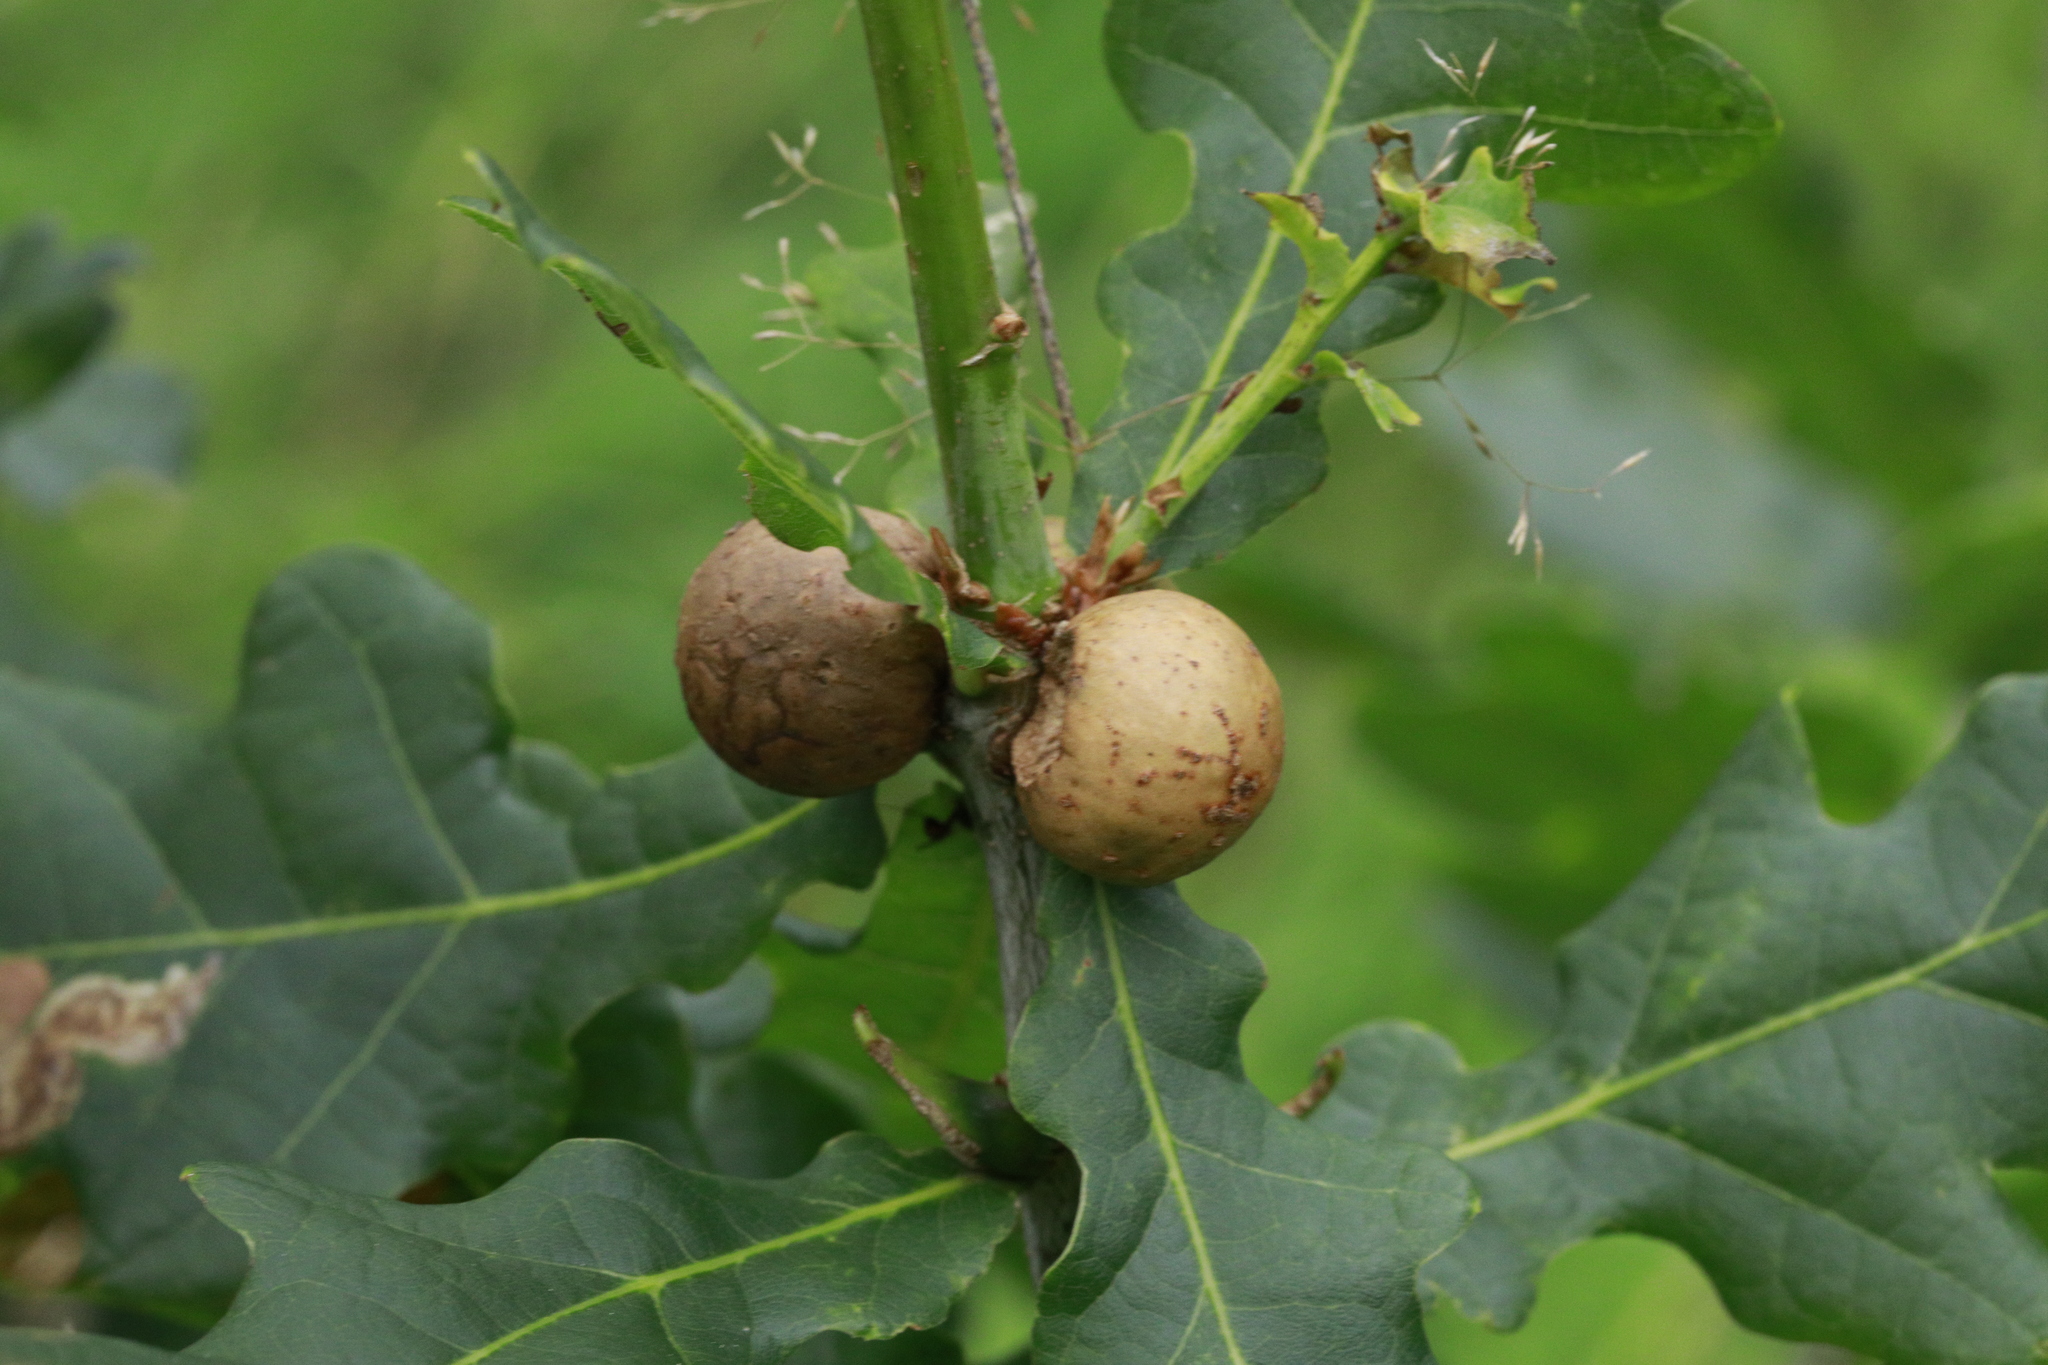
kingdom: Animalia
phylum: Arthropoda
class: Insecta
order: Hymenoptera
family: Cynipidae
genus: Andricus
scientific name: Andricus kollari
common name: Marble gall
